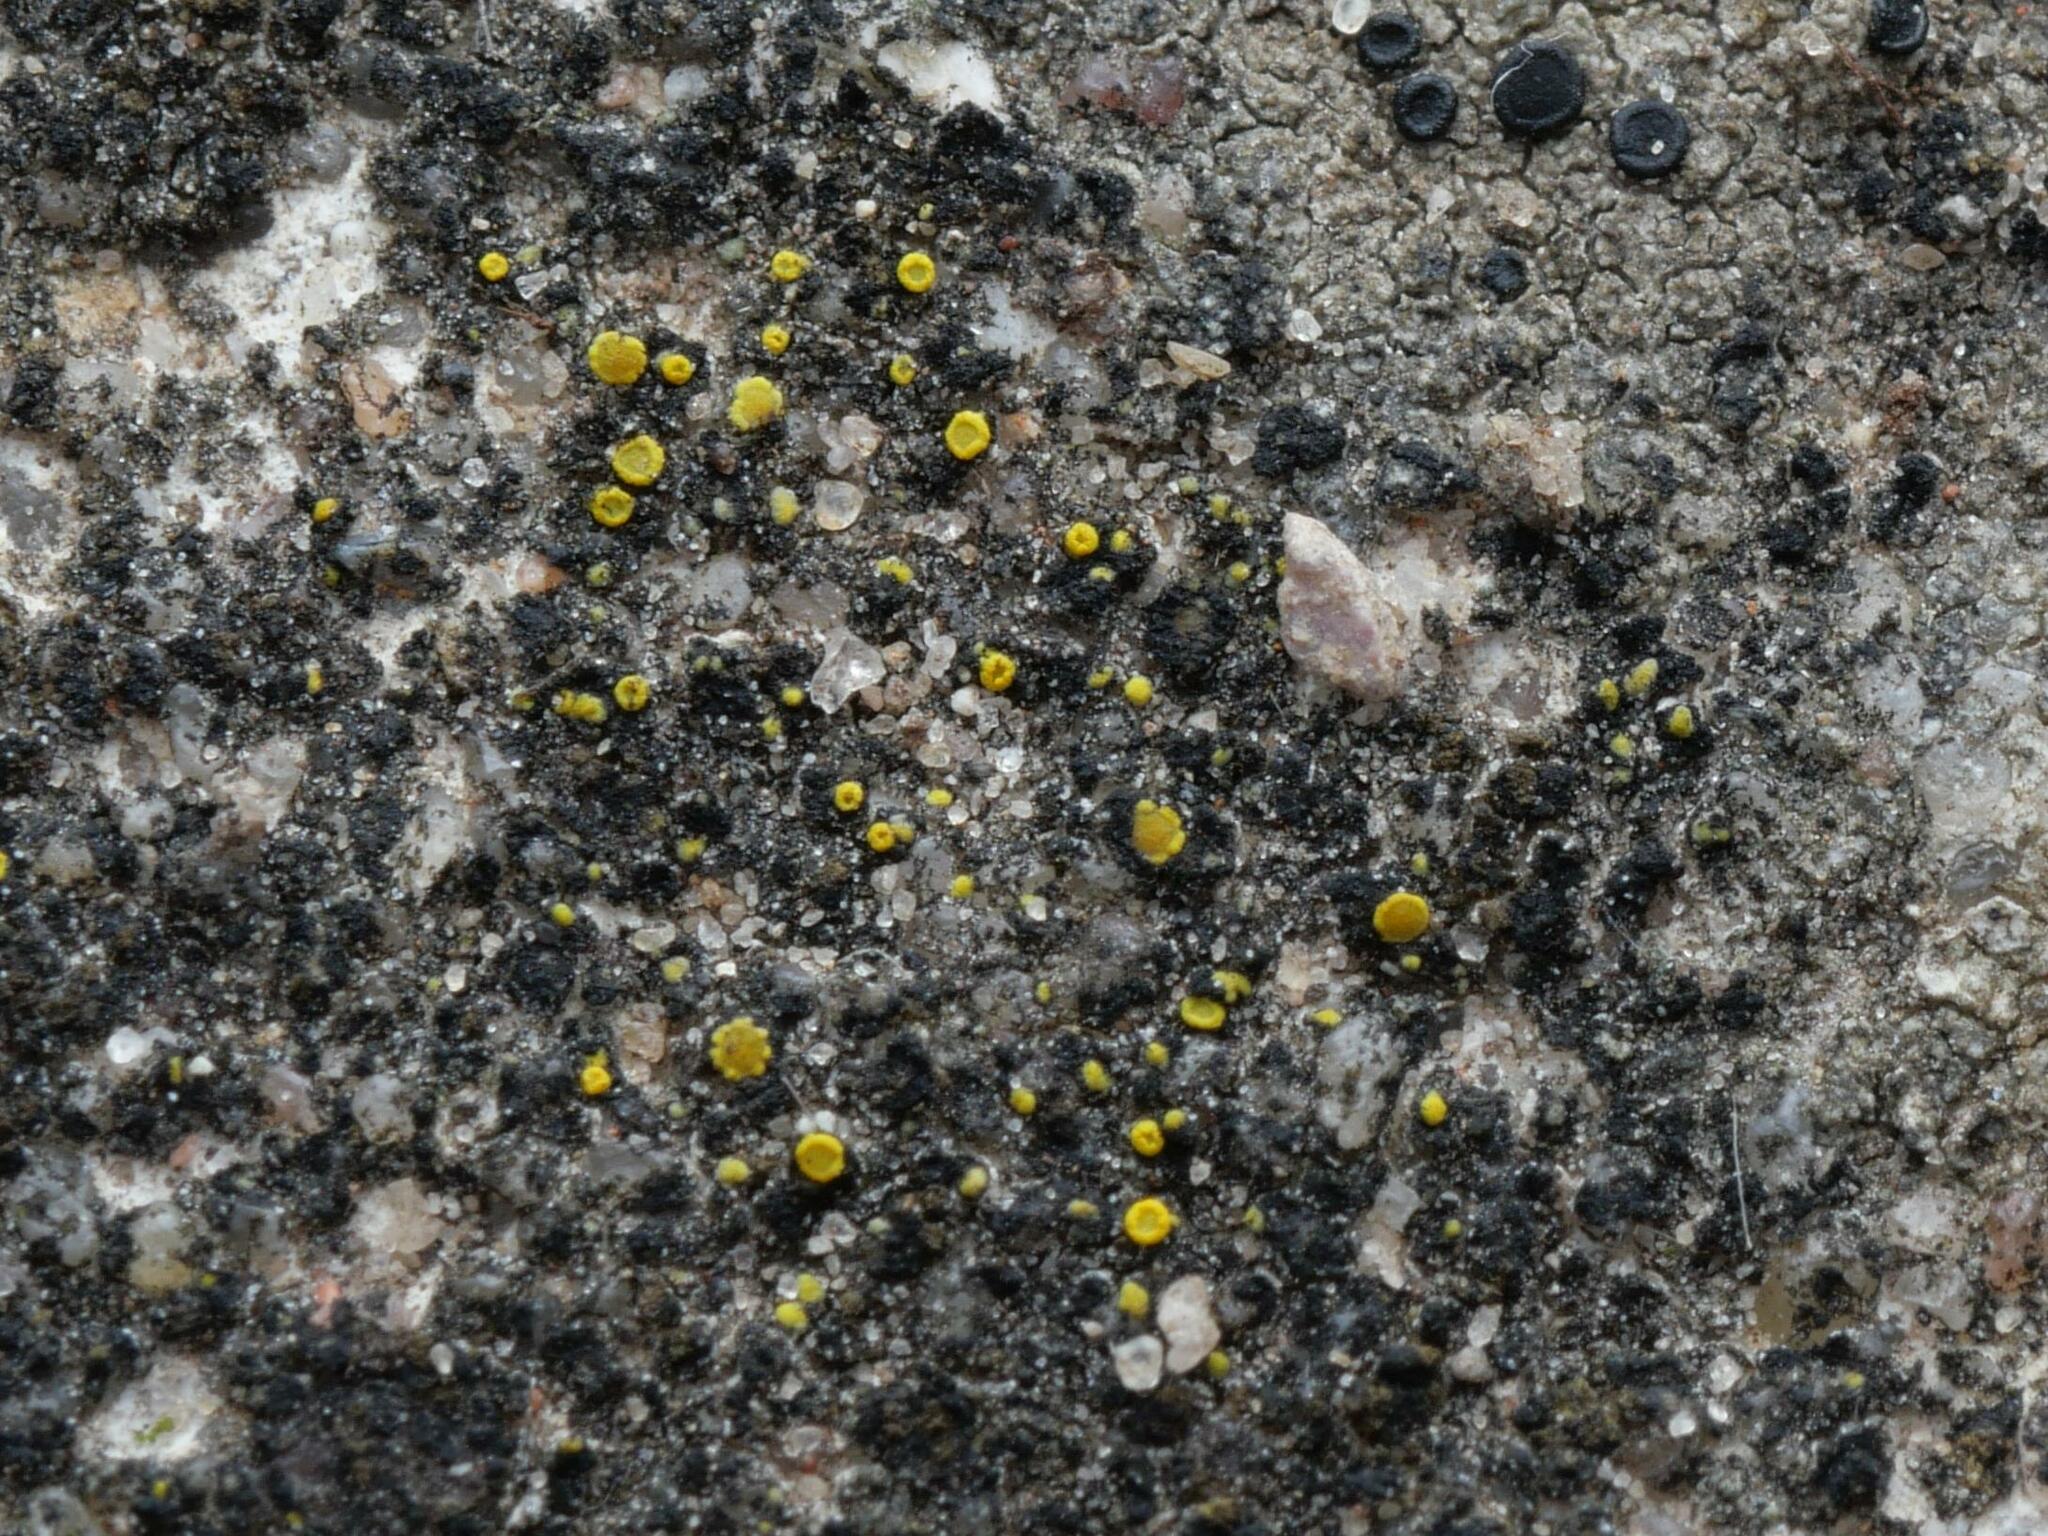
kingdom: Fungi
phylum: Ascomycota
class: Candelariomycetes
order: Candelariales
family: Candelariaceae
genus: Candelariella
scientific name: Candelariella aurella
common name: Hidden goldspeck lichen
